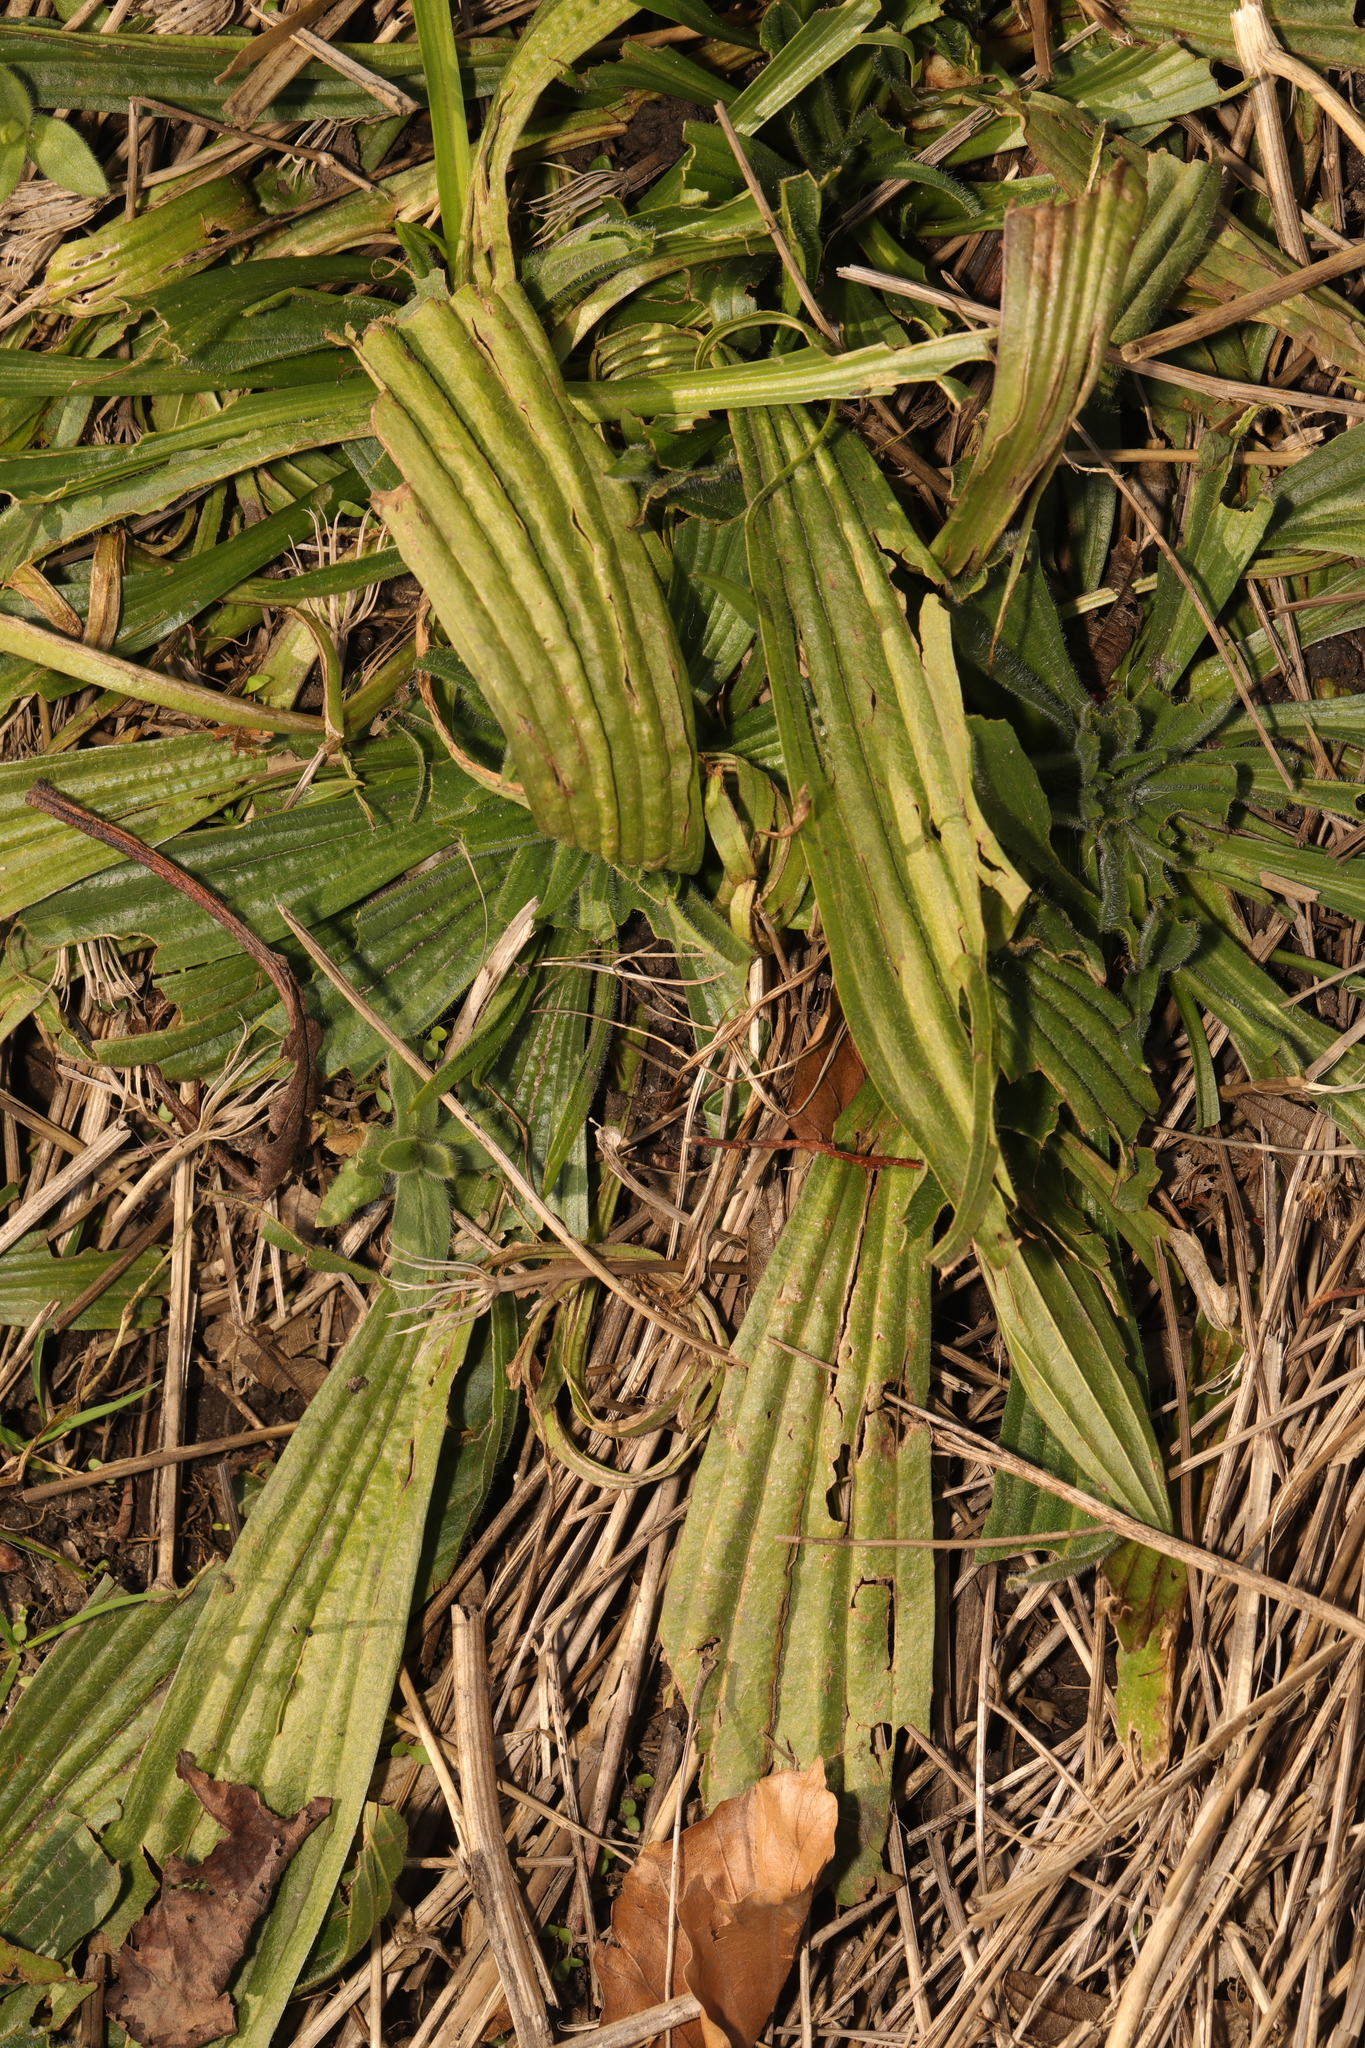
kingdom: Plantae
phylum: Tracheophyta
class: Magnoliopsida
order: Lamiales
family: Plantaginaceae
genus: Plantago
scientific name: Plantago lanceolata
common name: Ribwort plantain
